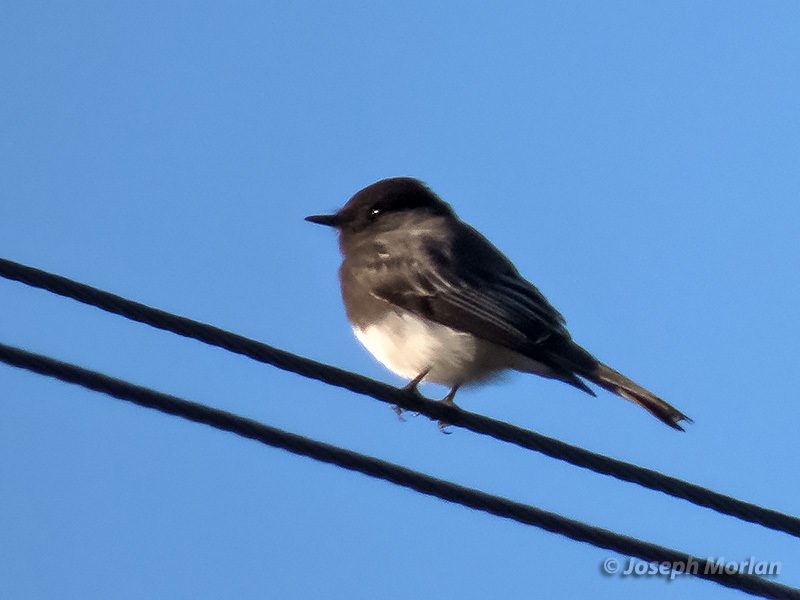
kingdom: Animalia
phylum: Chordata
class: Aves
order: Passeriformes
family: Tyrannidae
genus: Sayornis
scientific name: Sayornis nigricans
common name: Black phoebe
